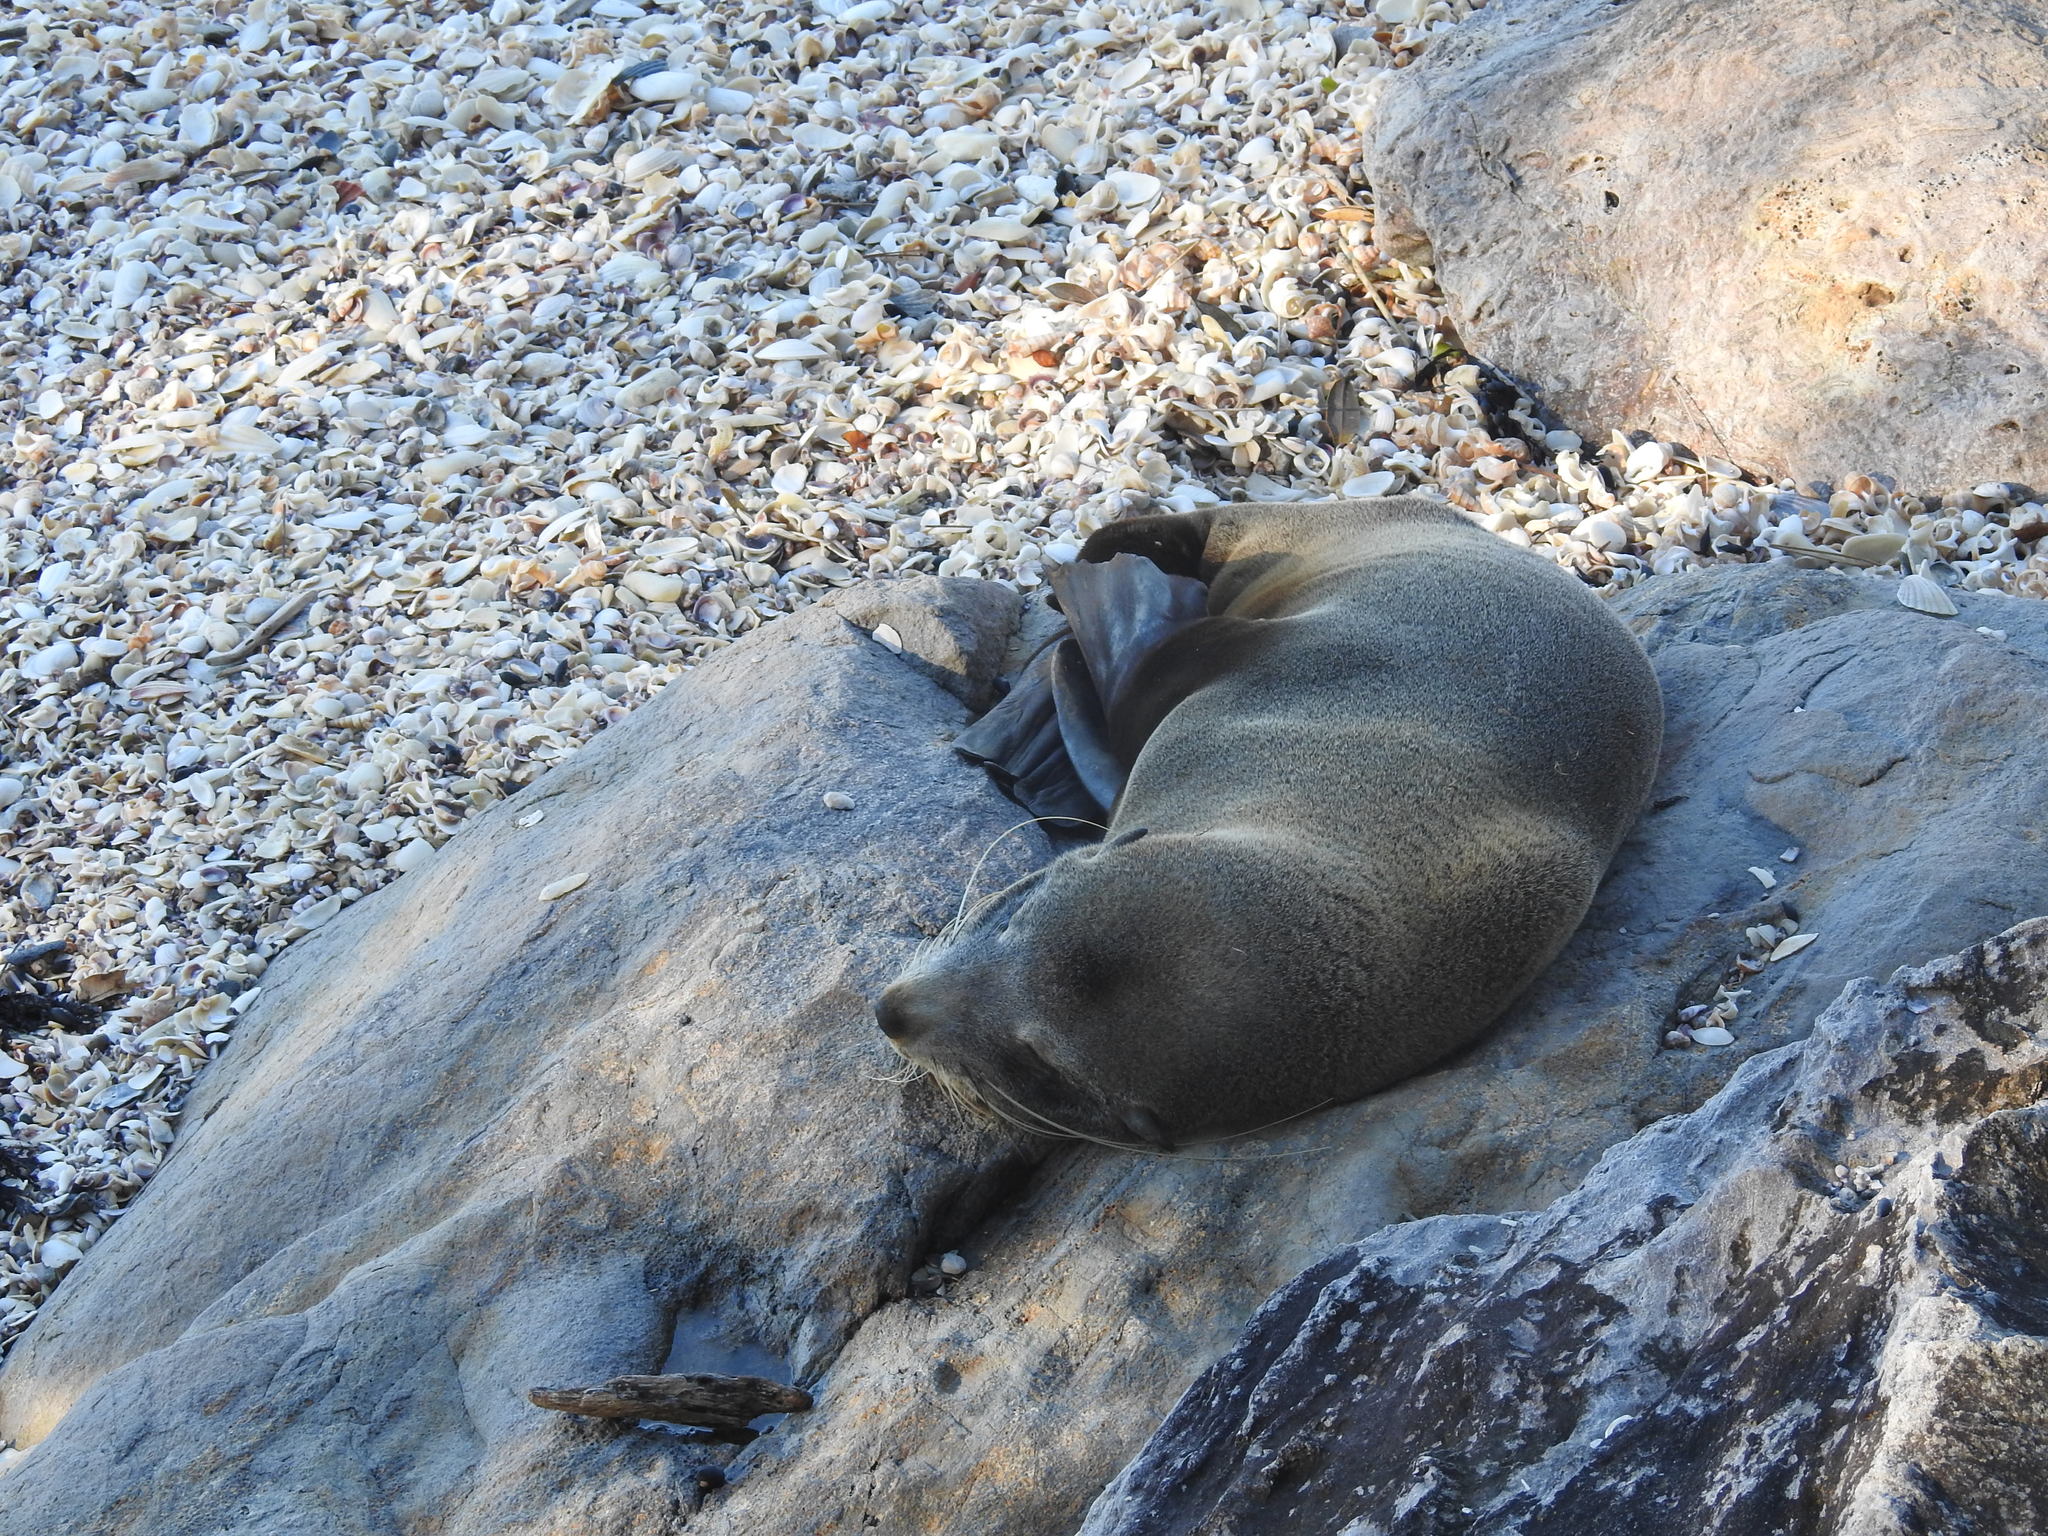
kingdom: Animalia
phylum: Chordata
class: Mammalia
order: Carnivora
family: Otariidae
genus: Arctocephalus
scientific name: Arctocephalus forsteri
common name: New zealand fur seal
